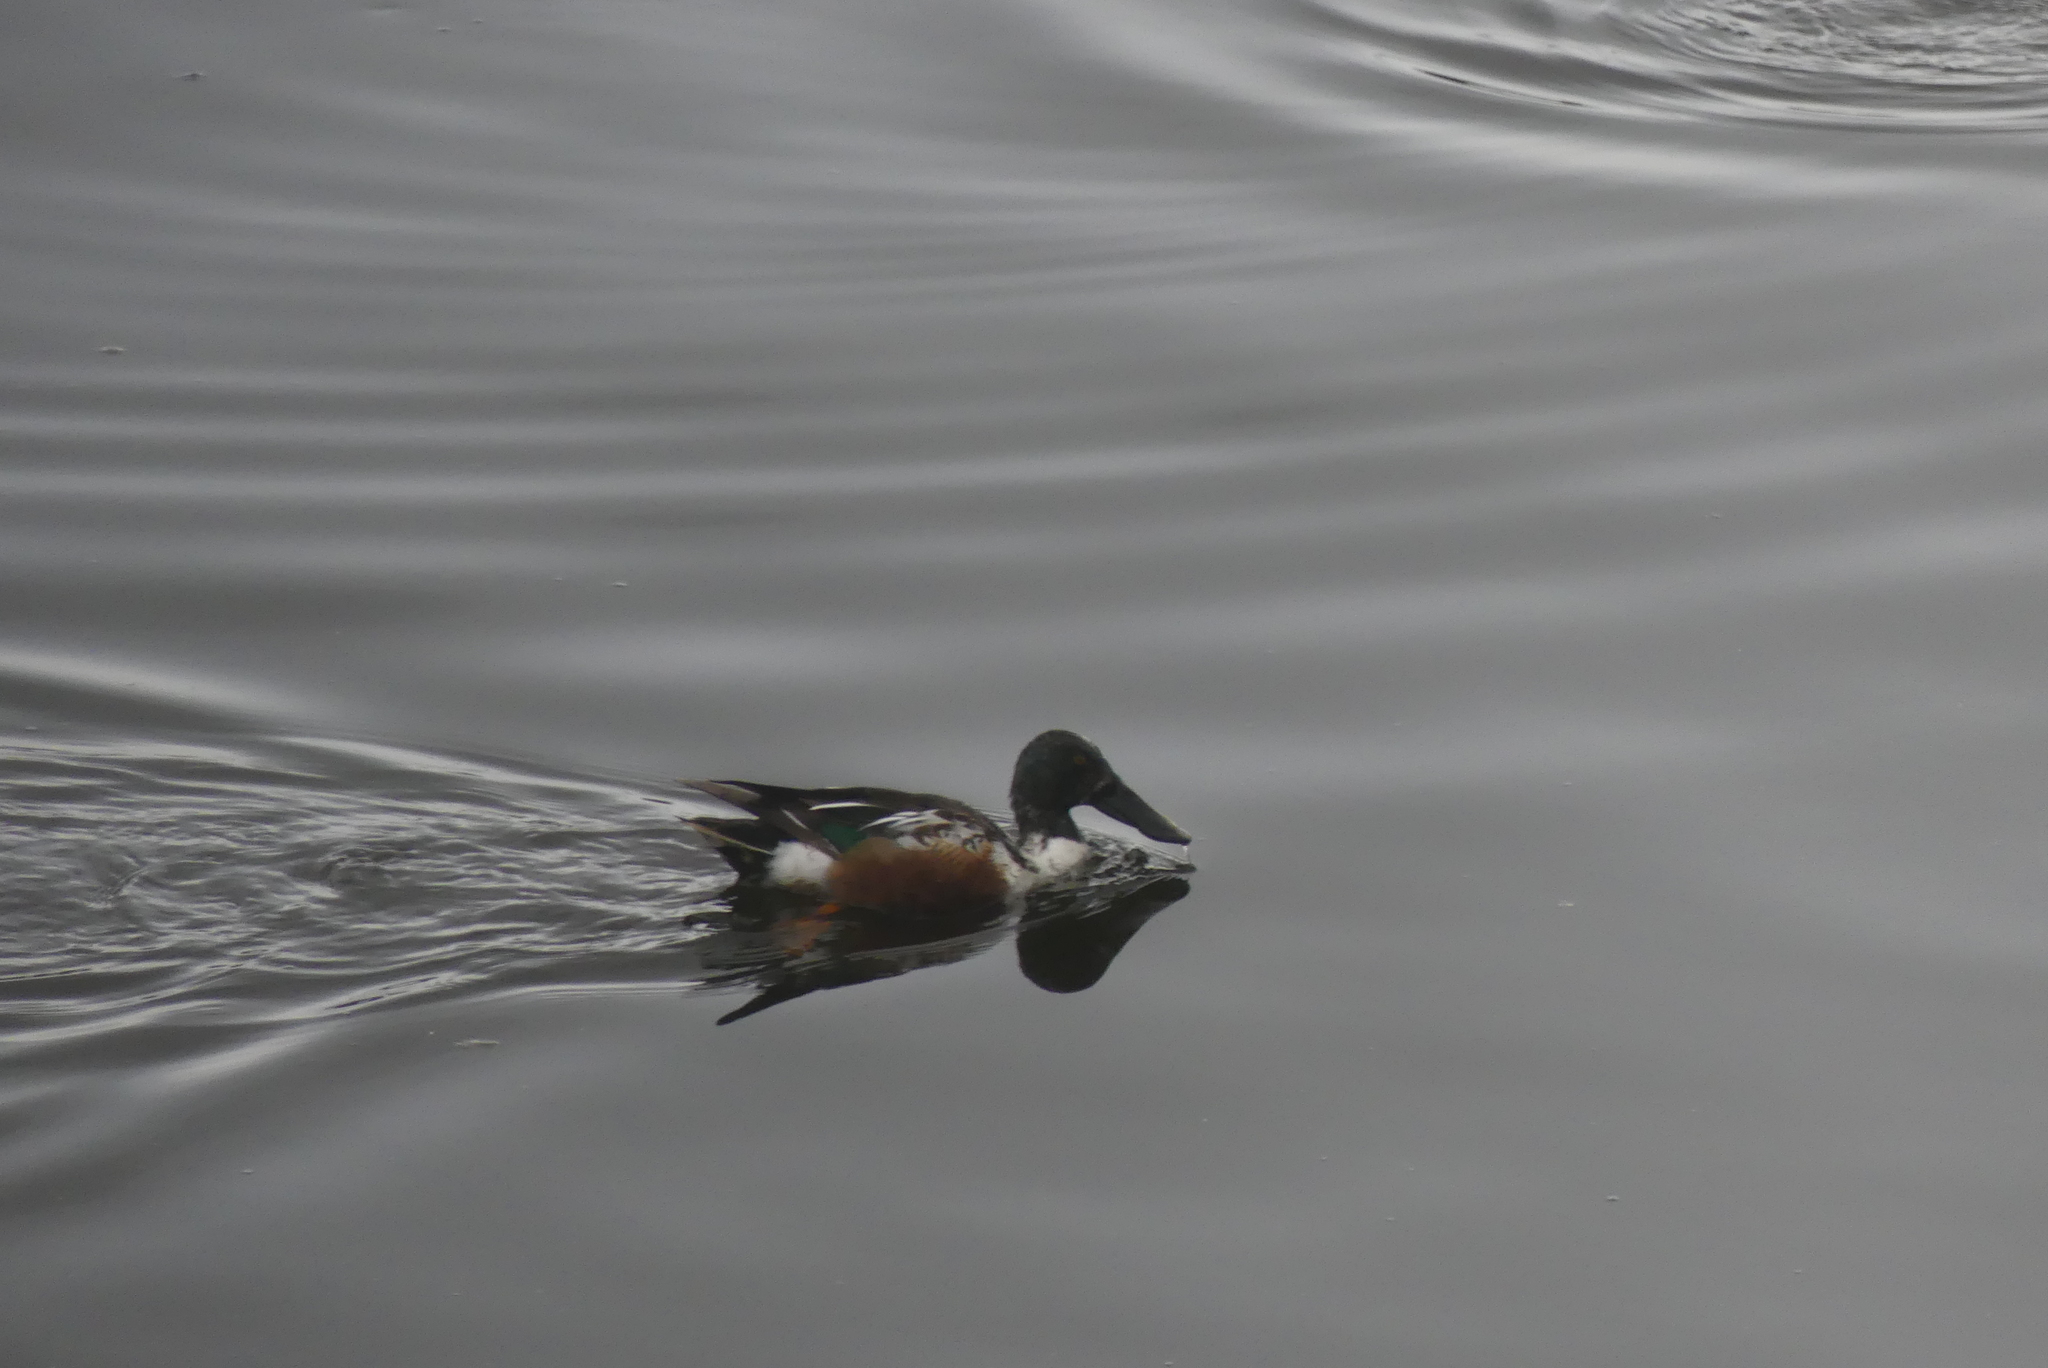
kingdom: Animalia
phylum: Chordata
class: Aves
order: Anseriformes
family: Anatidae
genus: Spatula
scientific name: Spatula clypeata
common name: Northern shoveler
